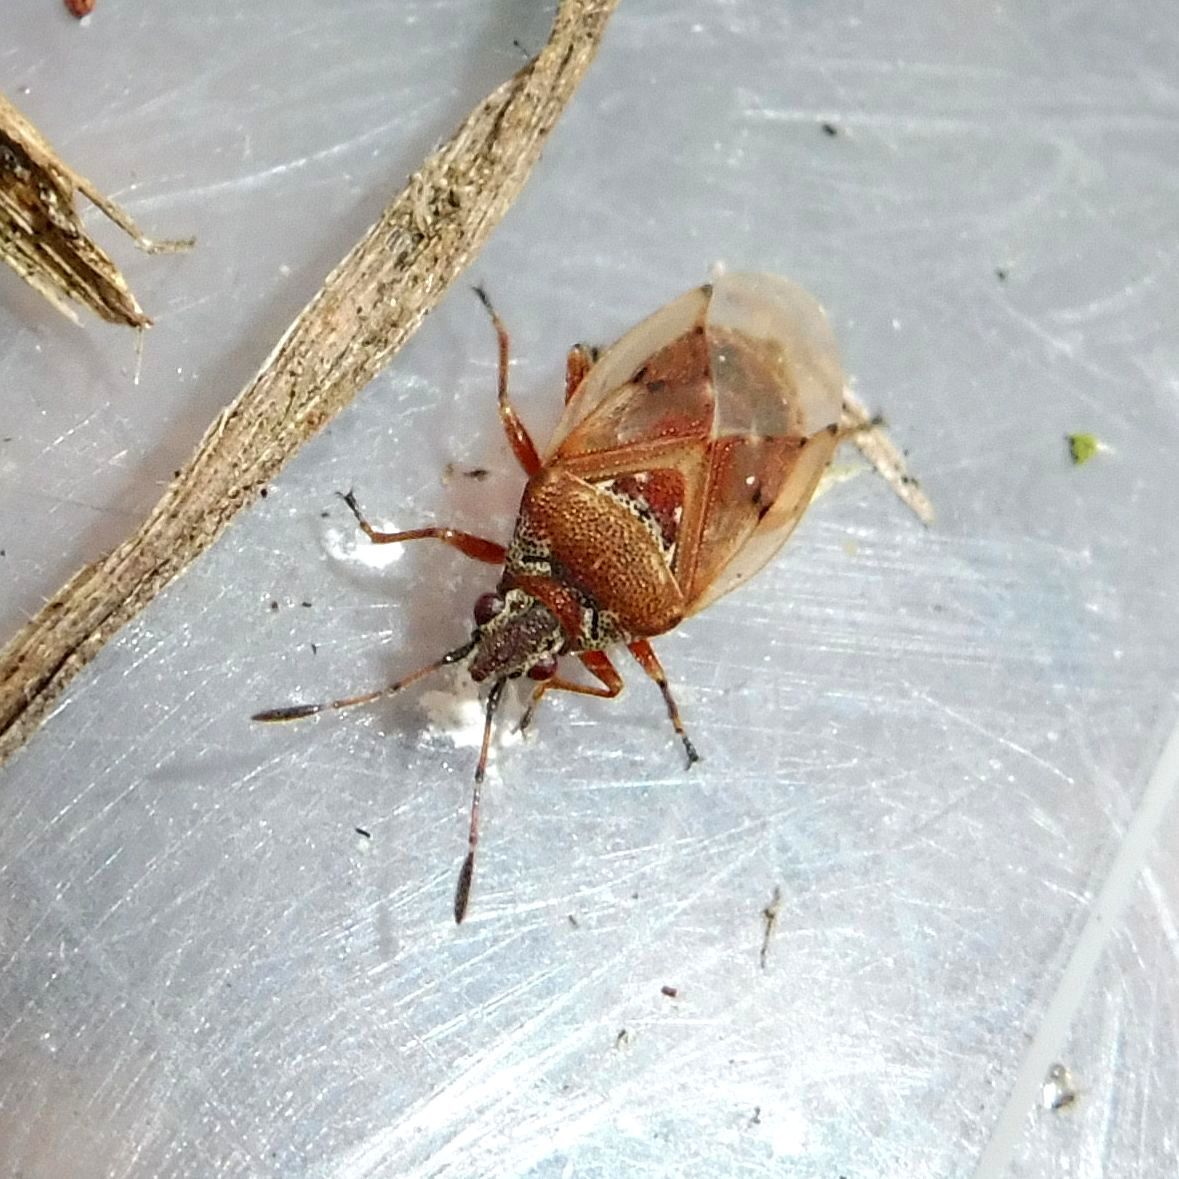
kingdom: Animalia
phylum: Arthropoda
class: Insecta
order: Hemiptera
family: Lygaeidae
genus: Kleidocerys
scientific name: Kleidocerys resedae
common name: Birch catkin bug
